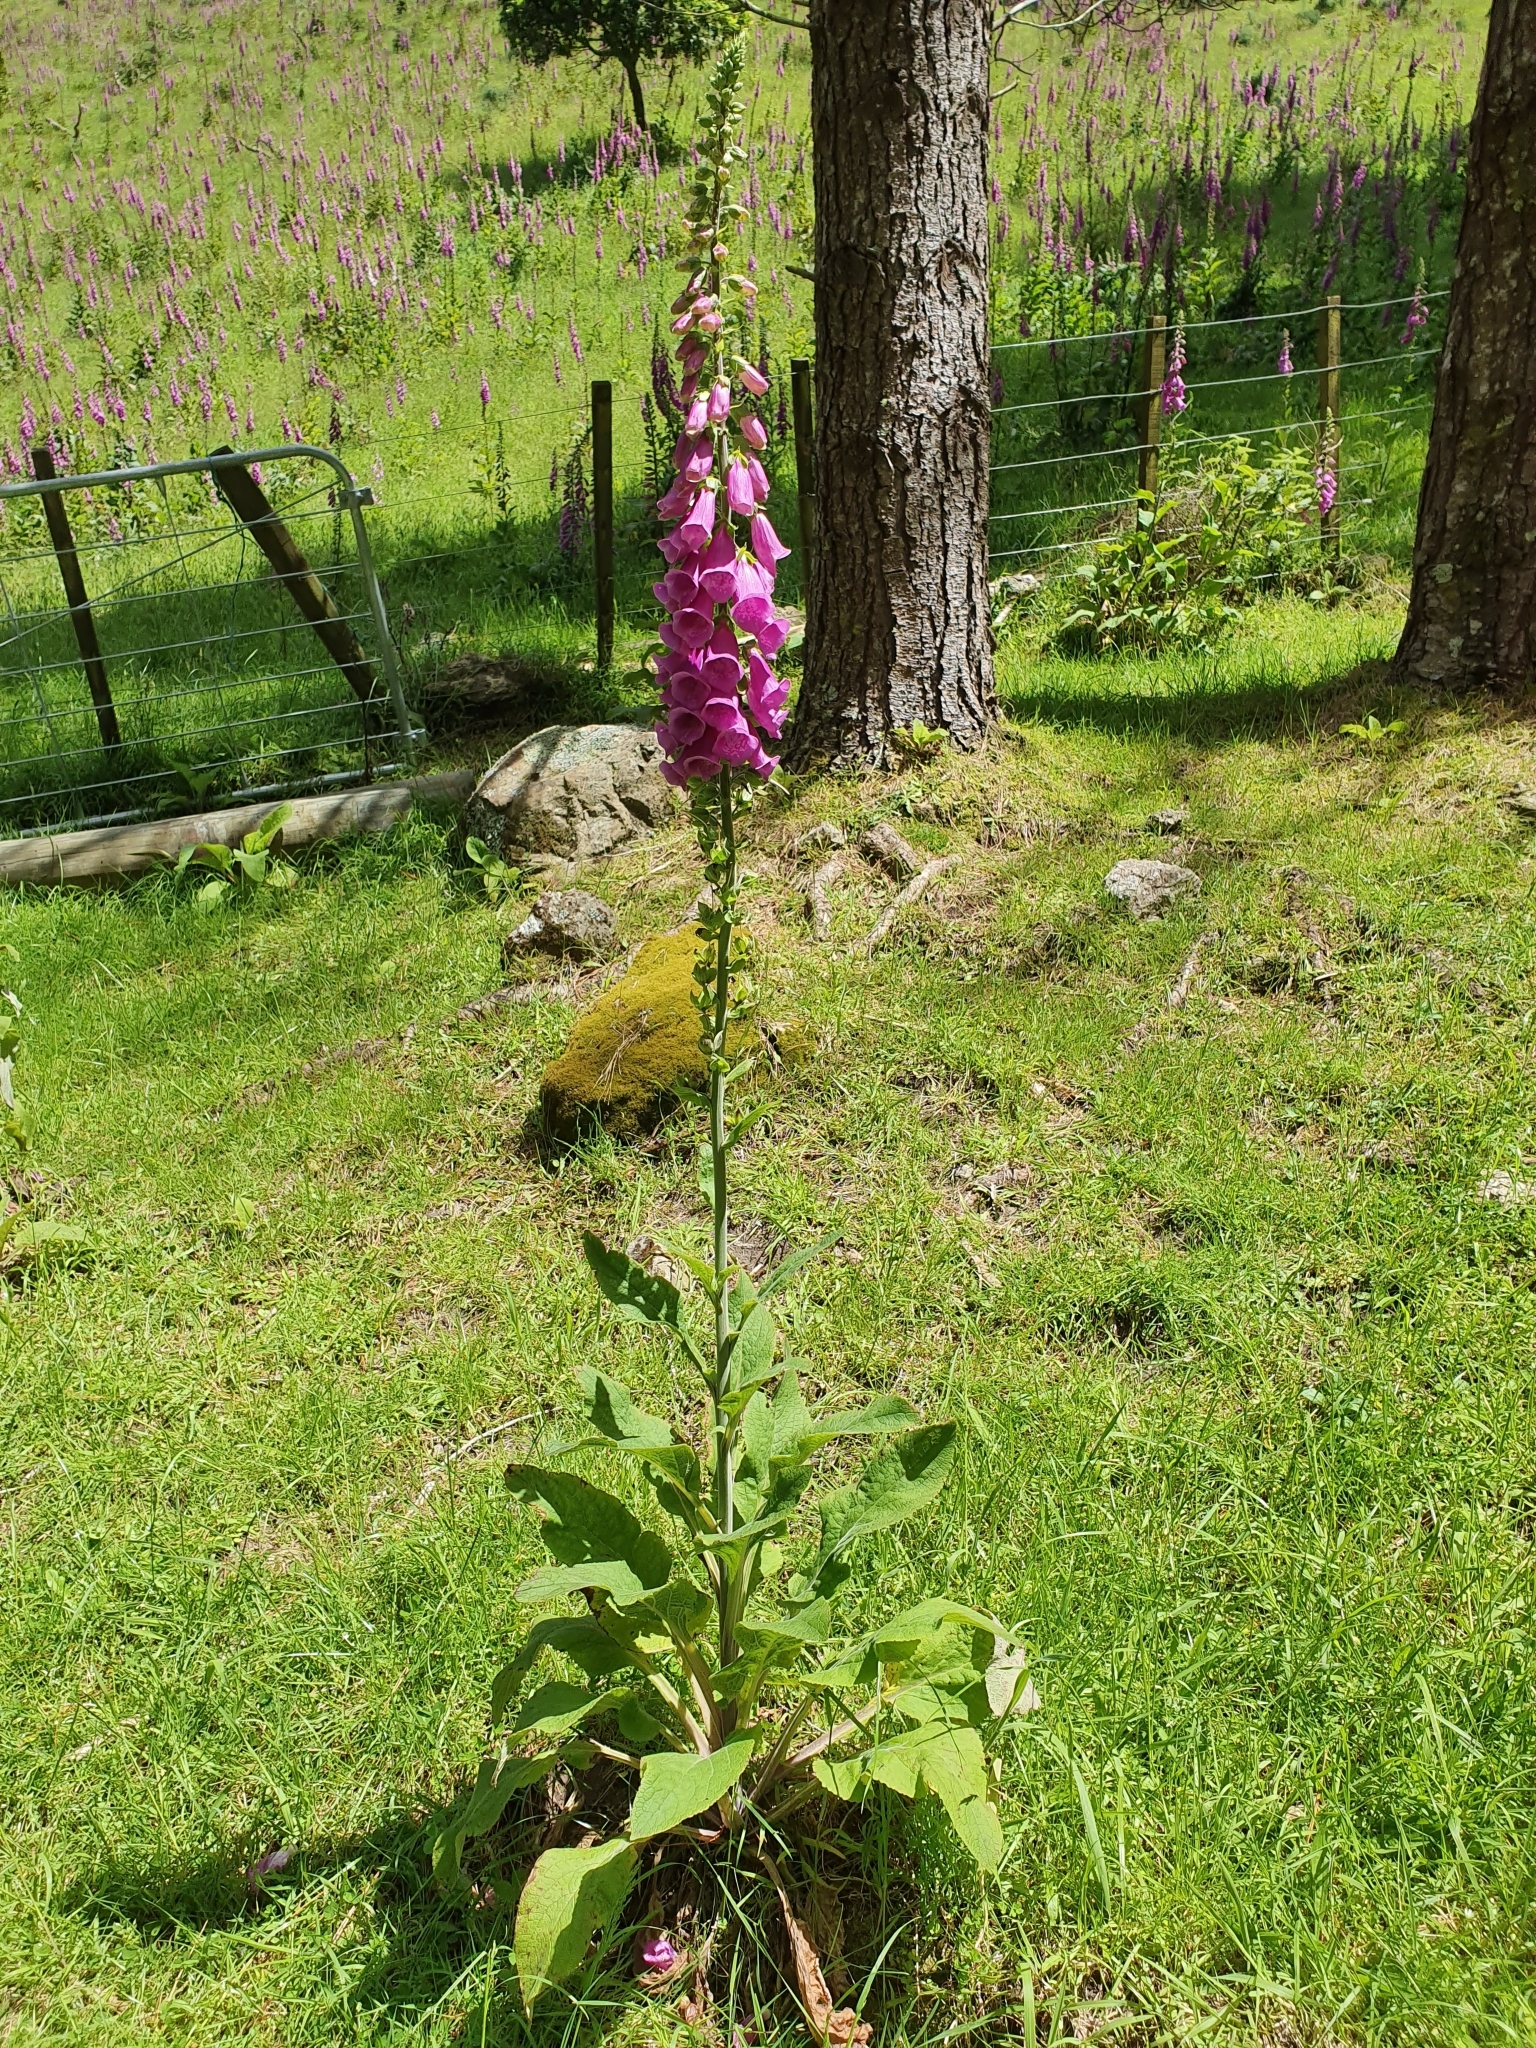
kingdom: Plantae
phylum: Tracheophyta
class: Magnoliopsida
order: Lamiales
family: Plantaginaceae
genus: Digitalis
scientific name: Digitalis purpurea
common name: Foxglove
